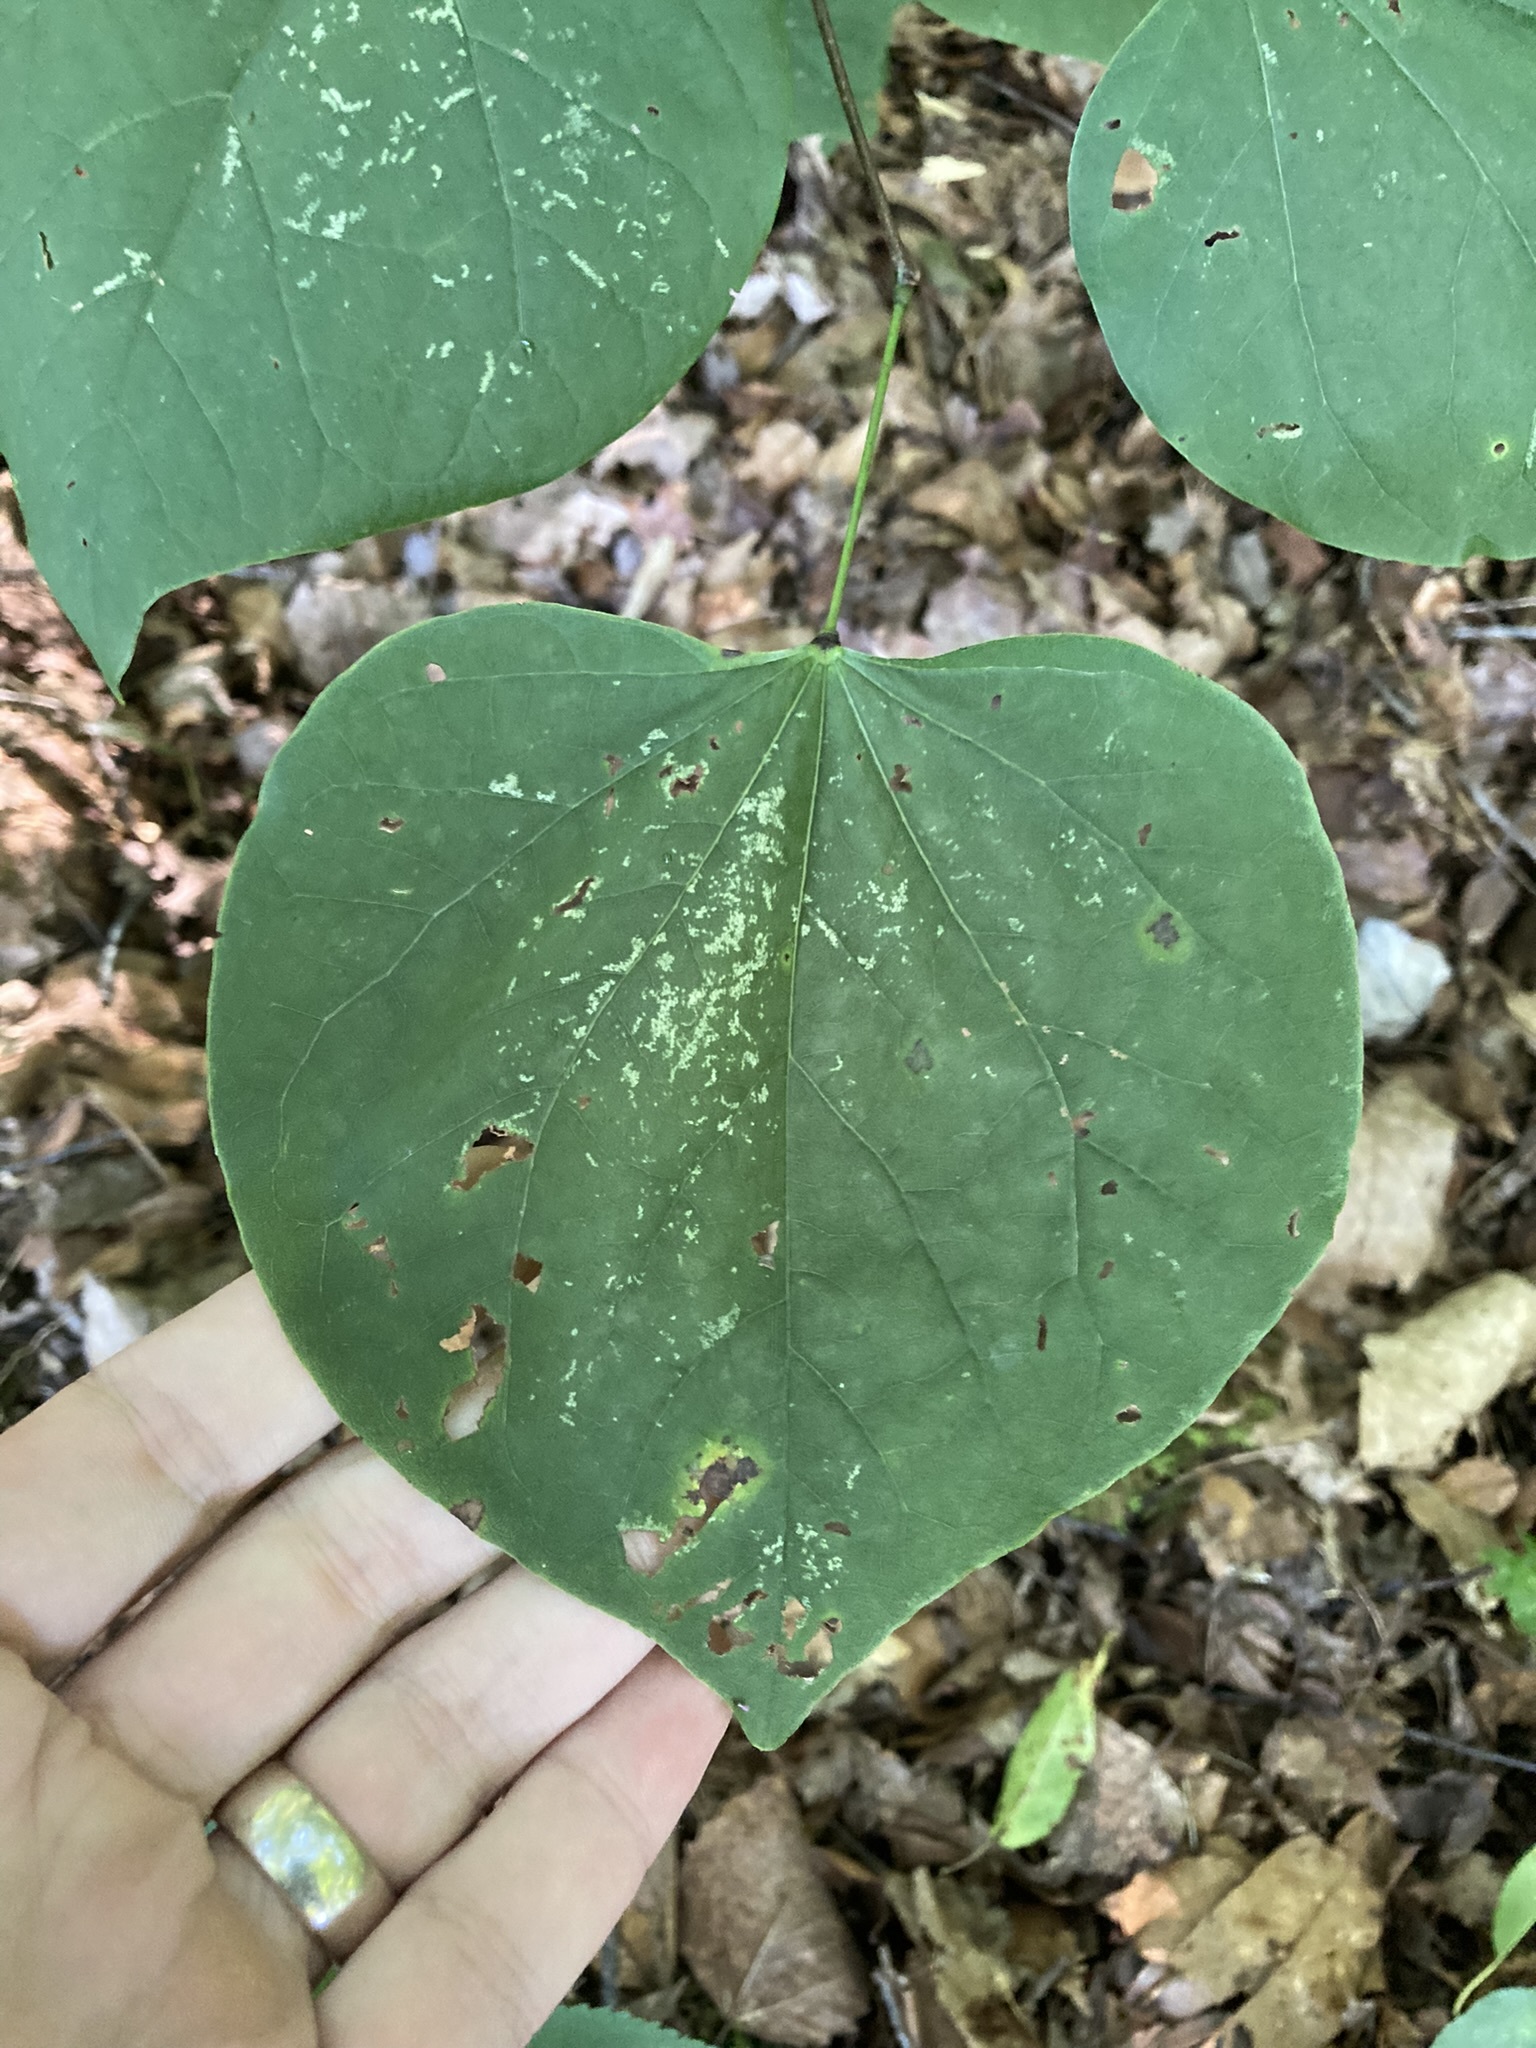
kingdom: Plantae
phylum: Tracheophyta
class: Magnoliopsida
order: Fabales
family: Fabaceae
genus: Cercis
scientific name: Cercis canadensis
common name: Eastern redbud
